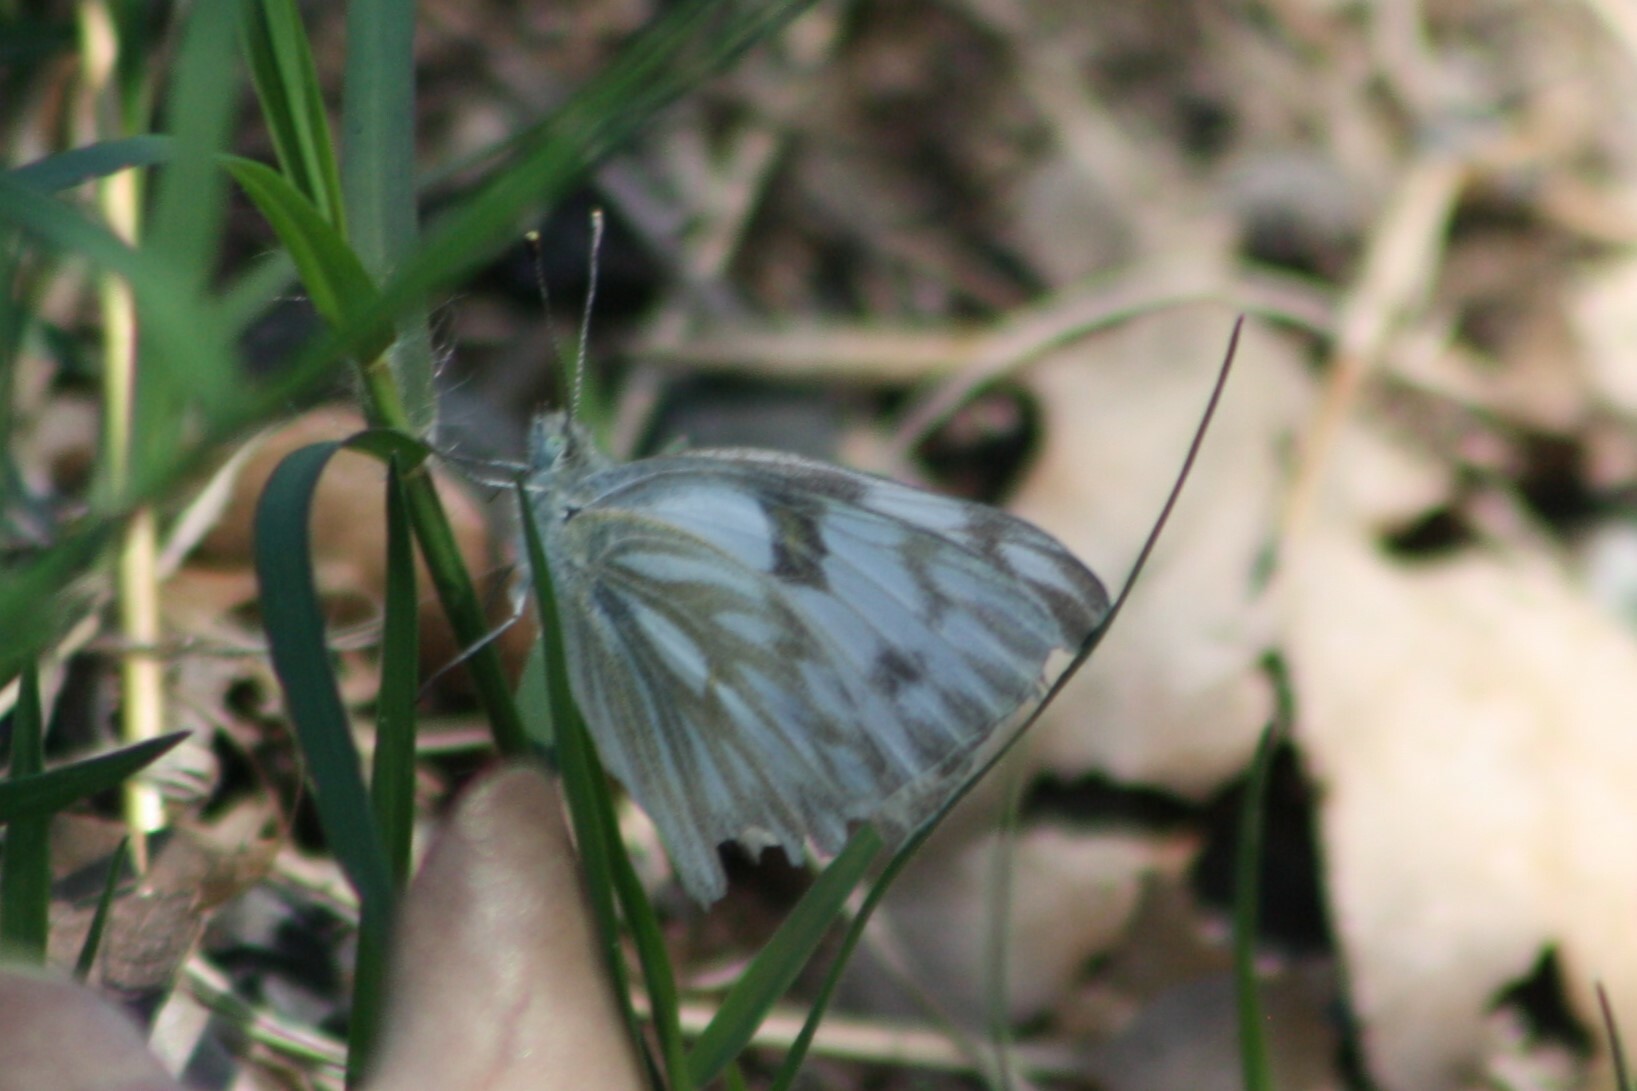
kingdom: Animalia
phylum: Arthropoda
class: Insecta
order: Lepidoptera
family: Pieridae
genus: Pontia
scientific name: Pontia protodice
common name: Checkered white
